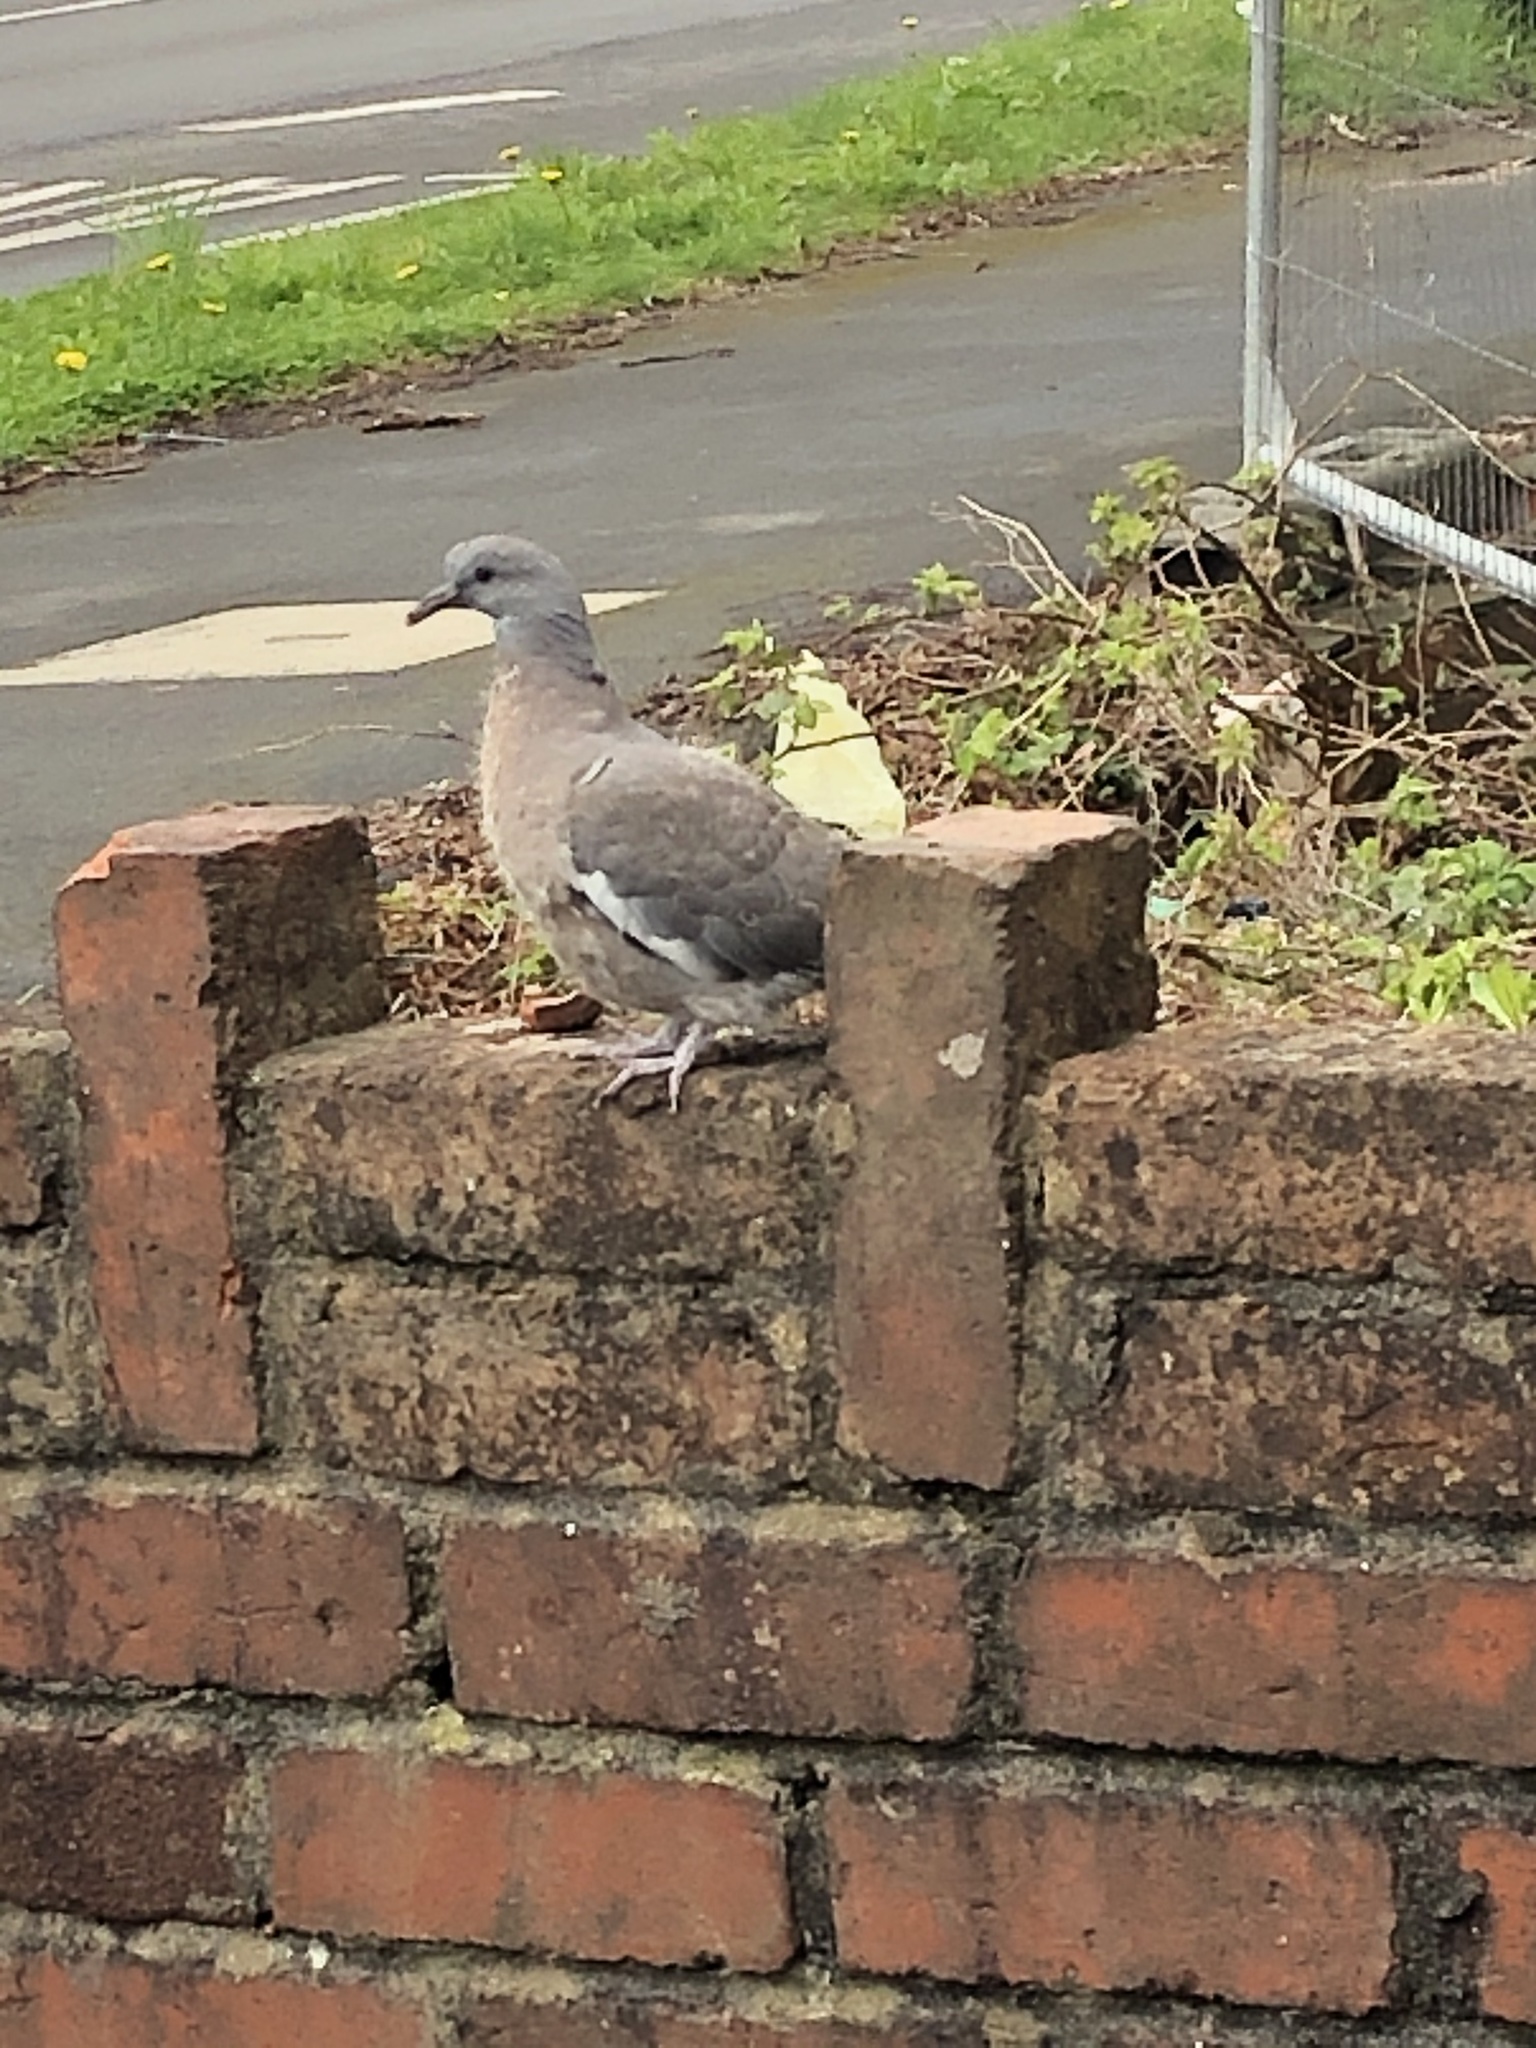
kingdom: Animalia
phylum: Chordata
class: Aves
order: Columbiformes
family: Columbidae
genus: Columba
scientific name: Columba palumbus
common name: Common wood pigeon
